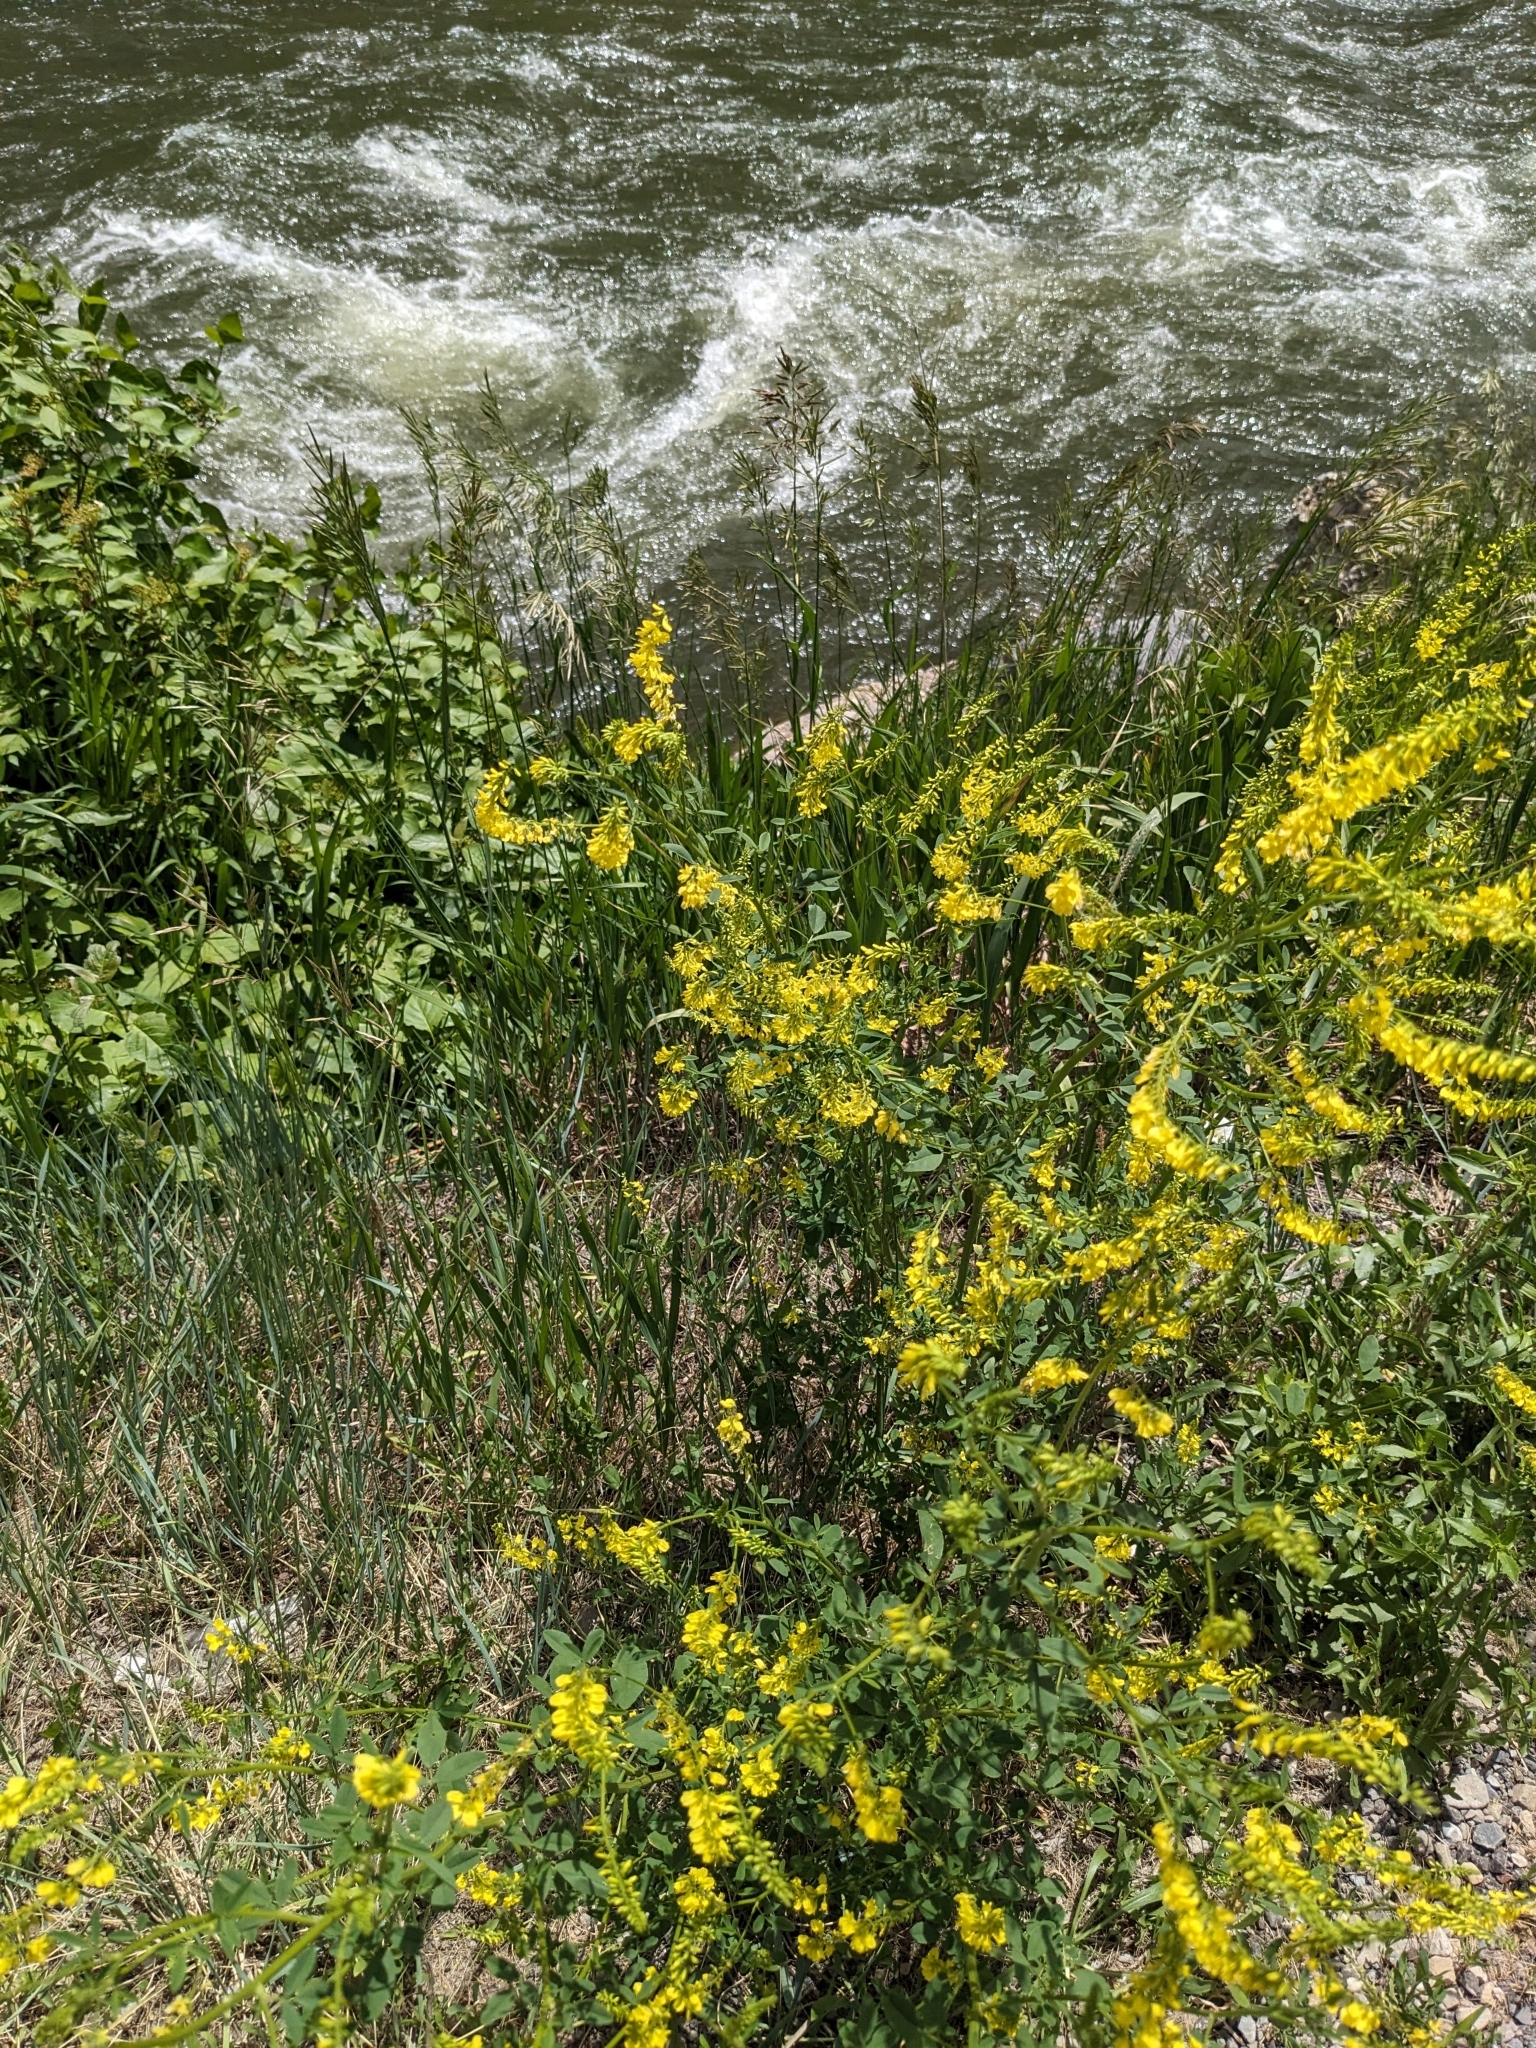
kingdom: Plantae
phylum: Tracheophyta
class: Magnoliopsida
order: Fabales
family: Fabaceae
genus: Melilotus
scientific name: Melilotus officinalis
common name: Sweetclover
